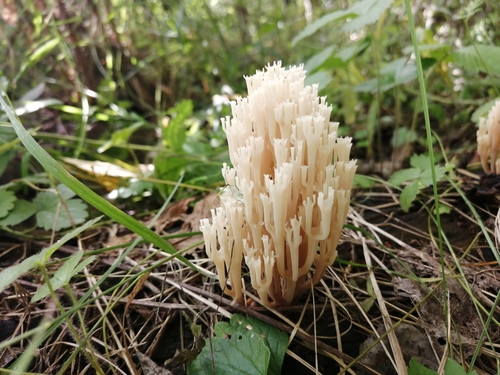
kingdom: Fungi
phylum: Basidiomycota
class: Agaricomycetes
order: Russulales
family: Auriscalpiaceae
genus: Artomyces
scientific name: Artomyces pyxidatus
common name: Crown-tipped coral fungus
